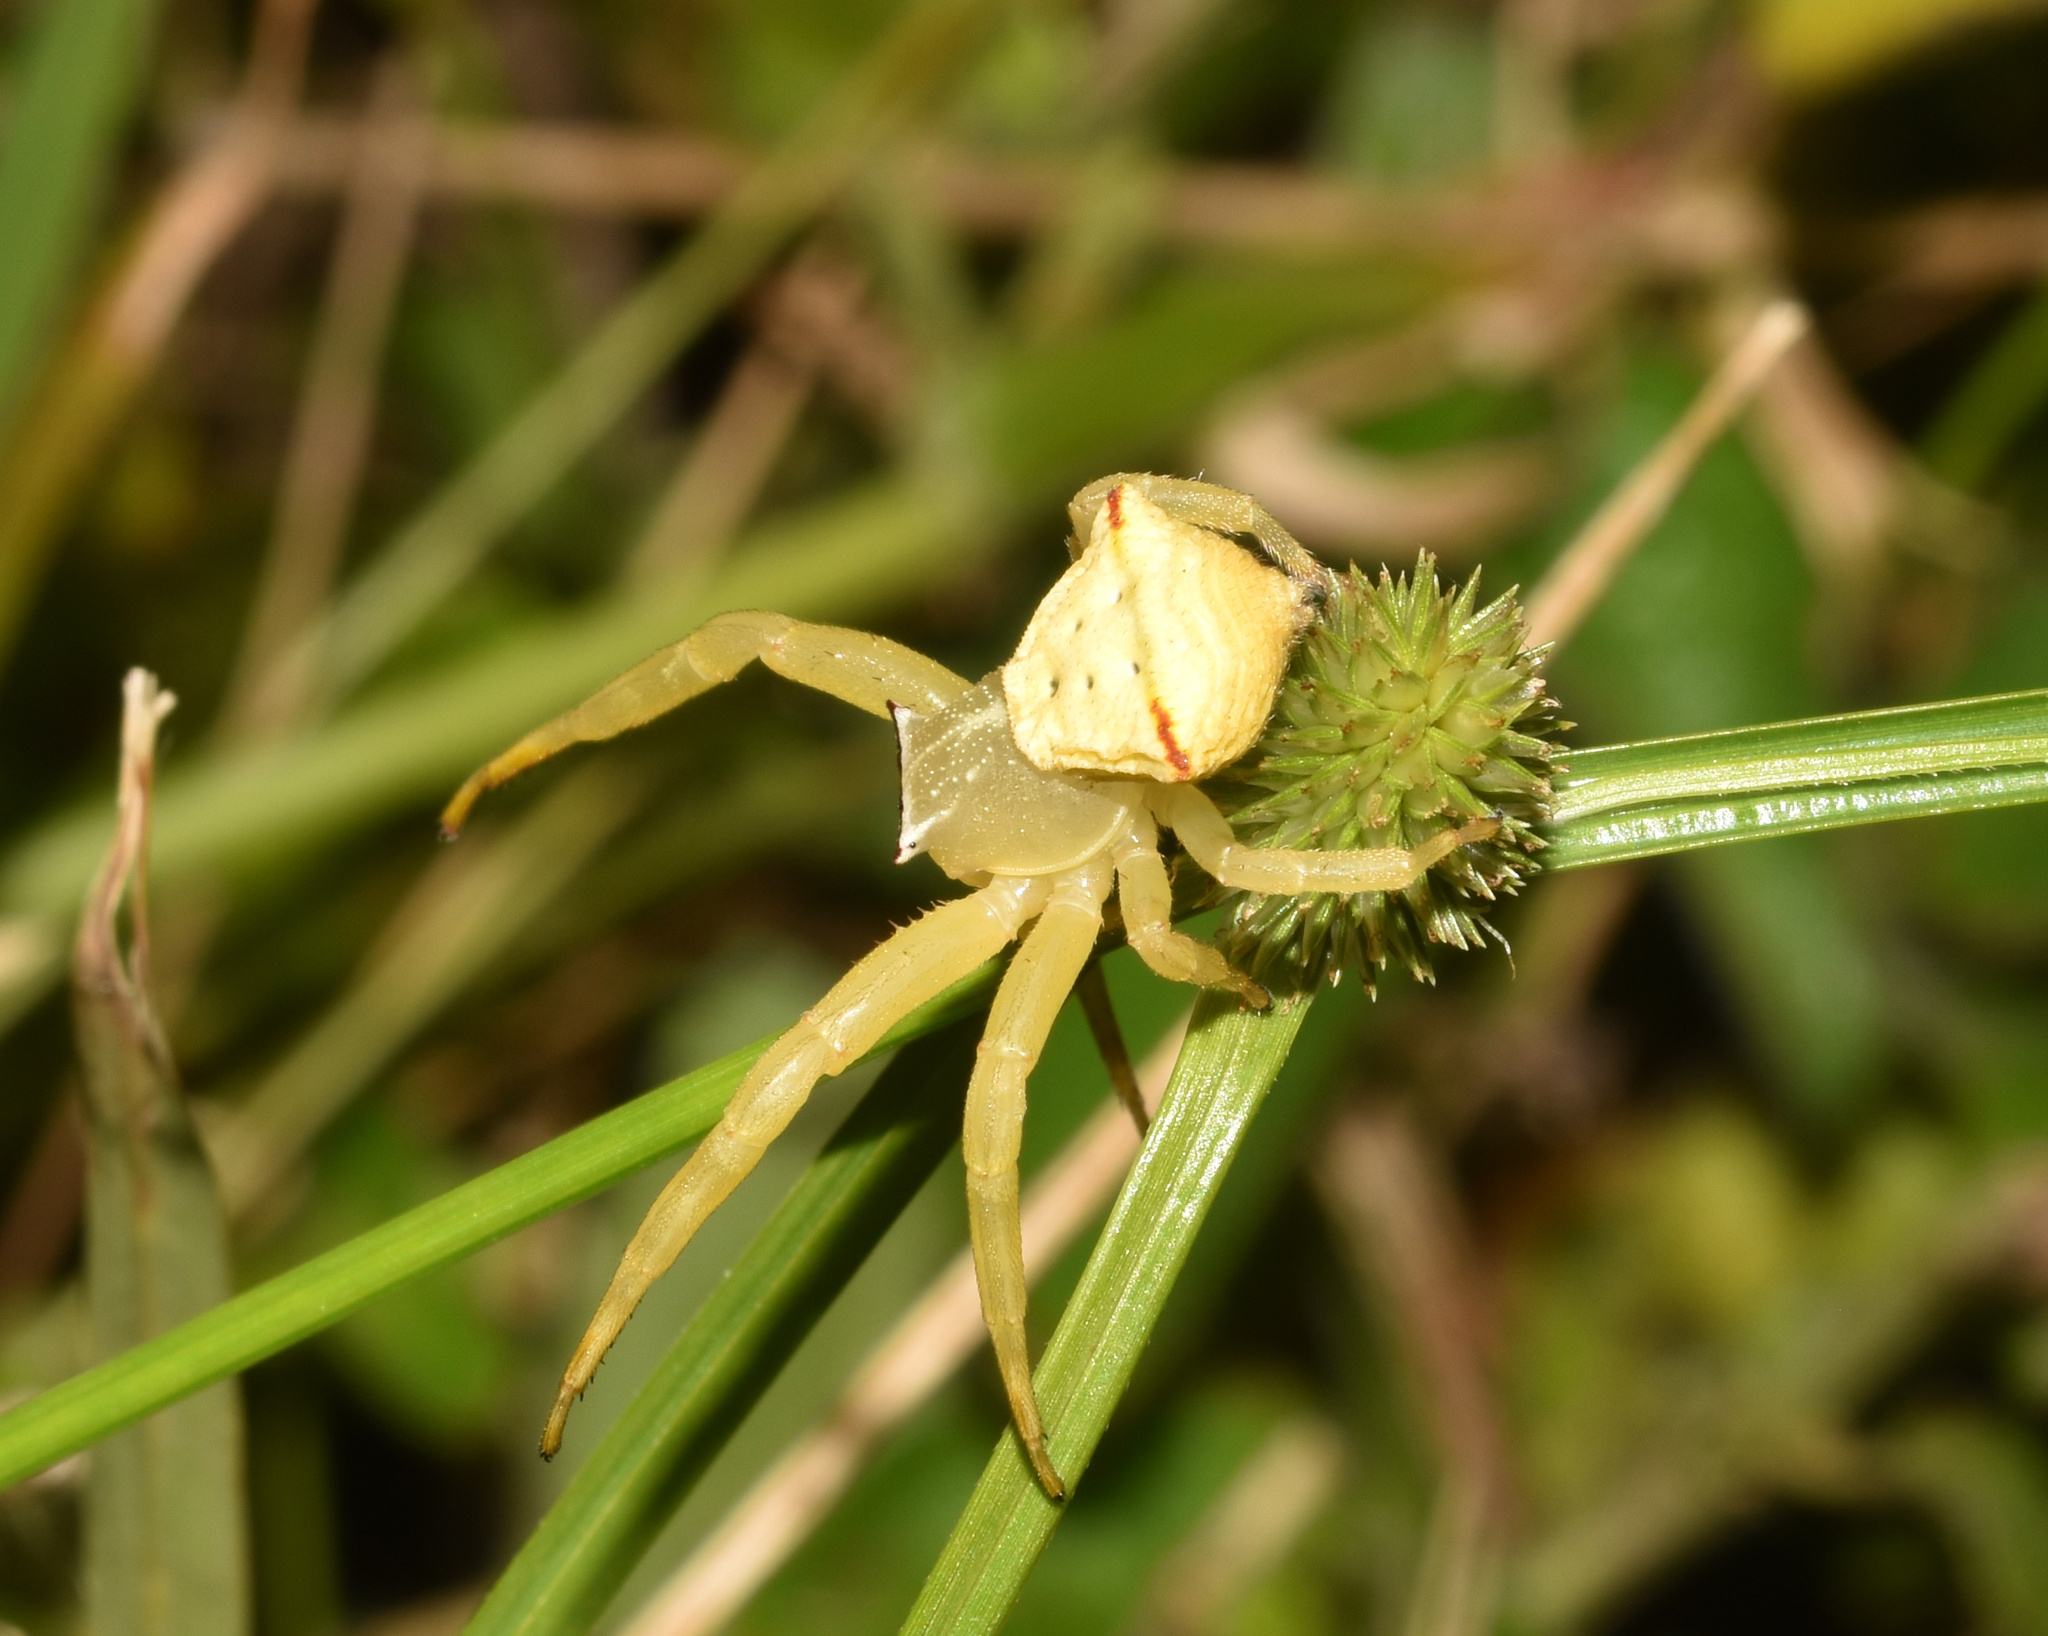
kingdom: Animalia
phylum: Arthropoda
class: Arachnida
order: Araneae
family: Thomisidae
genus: Thomisus
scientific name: Thomisus blandus
